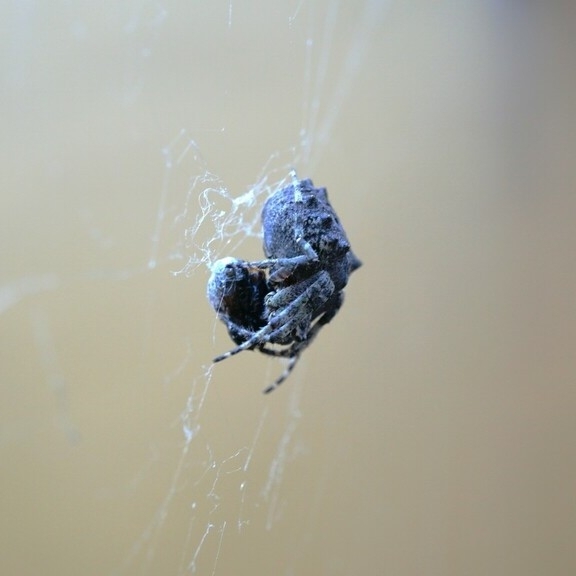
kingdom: Animalia
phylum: Arthropoda
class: Arachnida
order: Araneae
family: Araneidae
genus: Parawixia
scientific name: Parawixia audax
